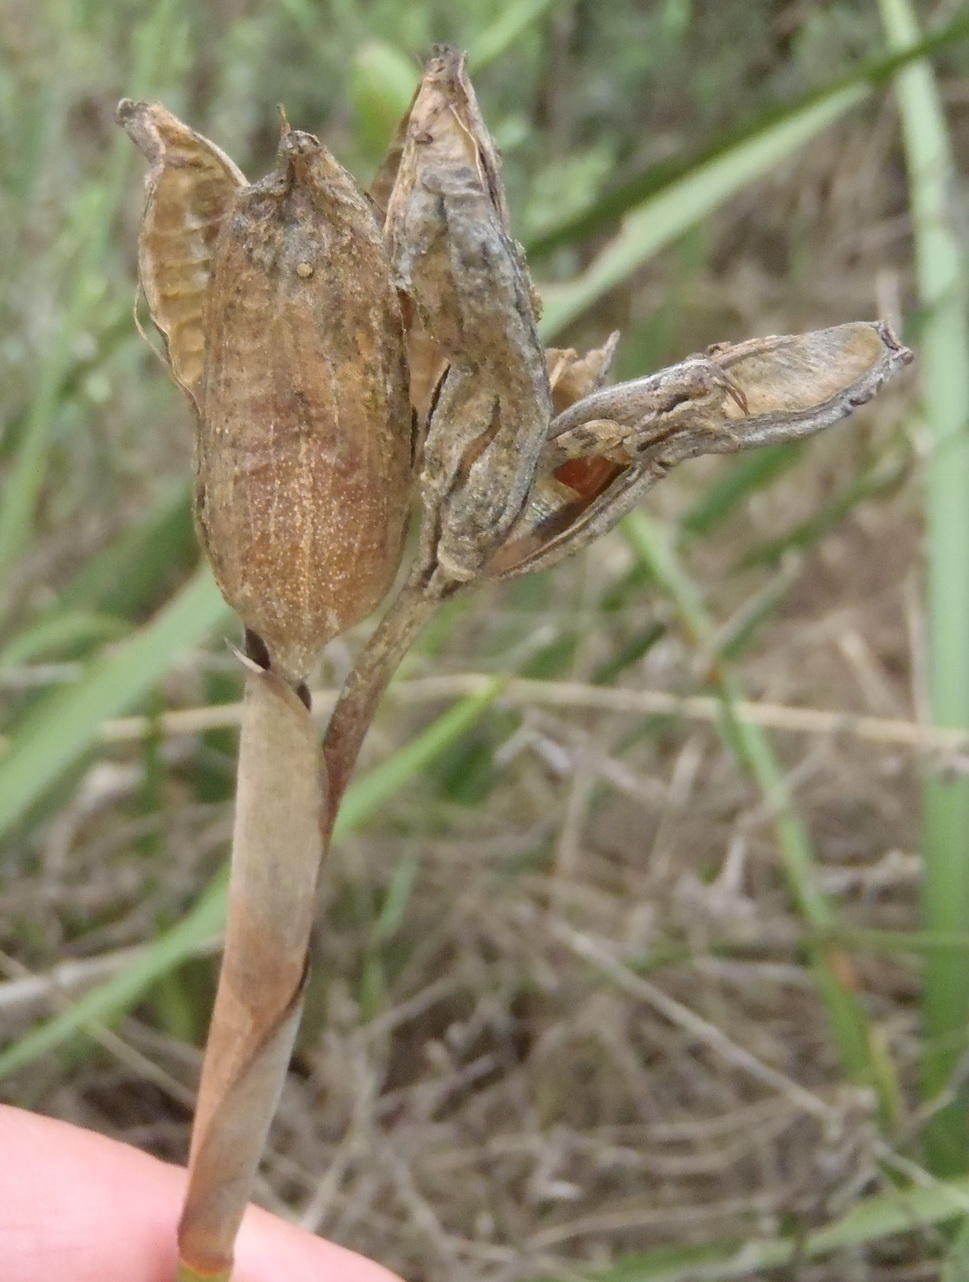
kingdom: Plantae
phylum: Tracheophyta
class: Liliopsida
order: Asparagales
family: Iridaceae
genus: Dietes
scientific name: Dietes grandiflora
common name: Wild iris
